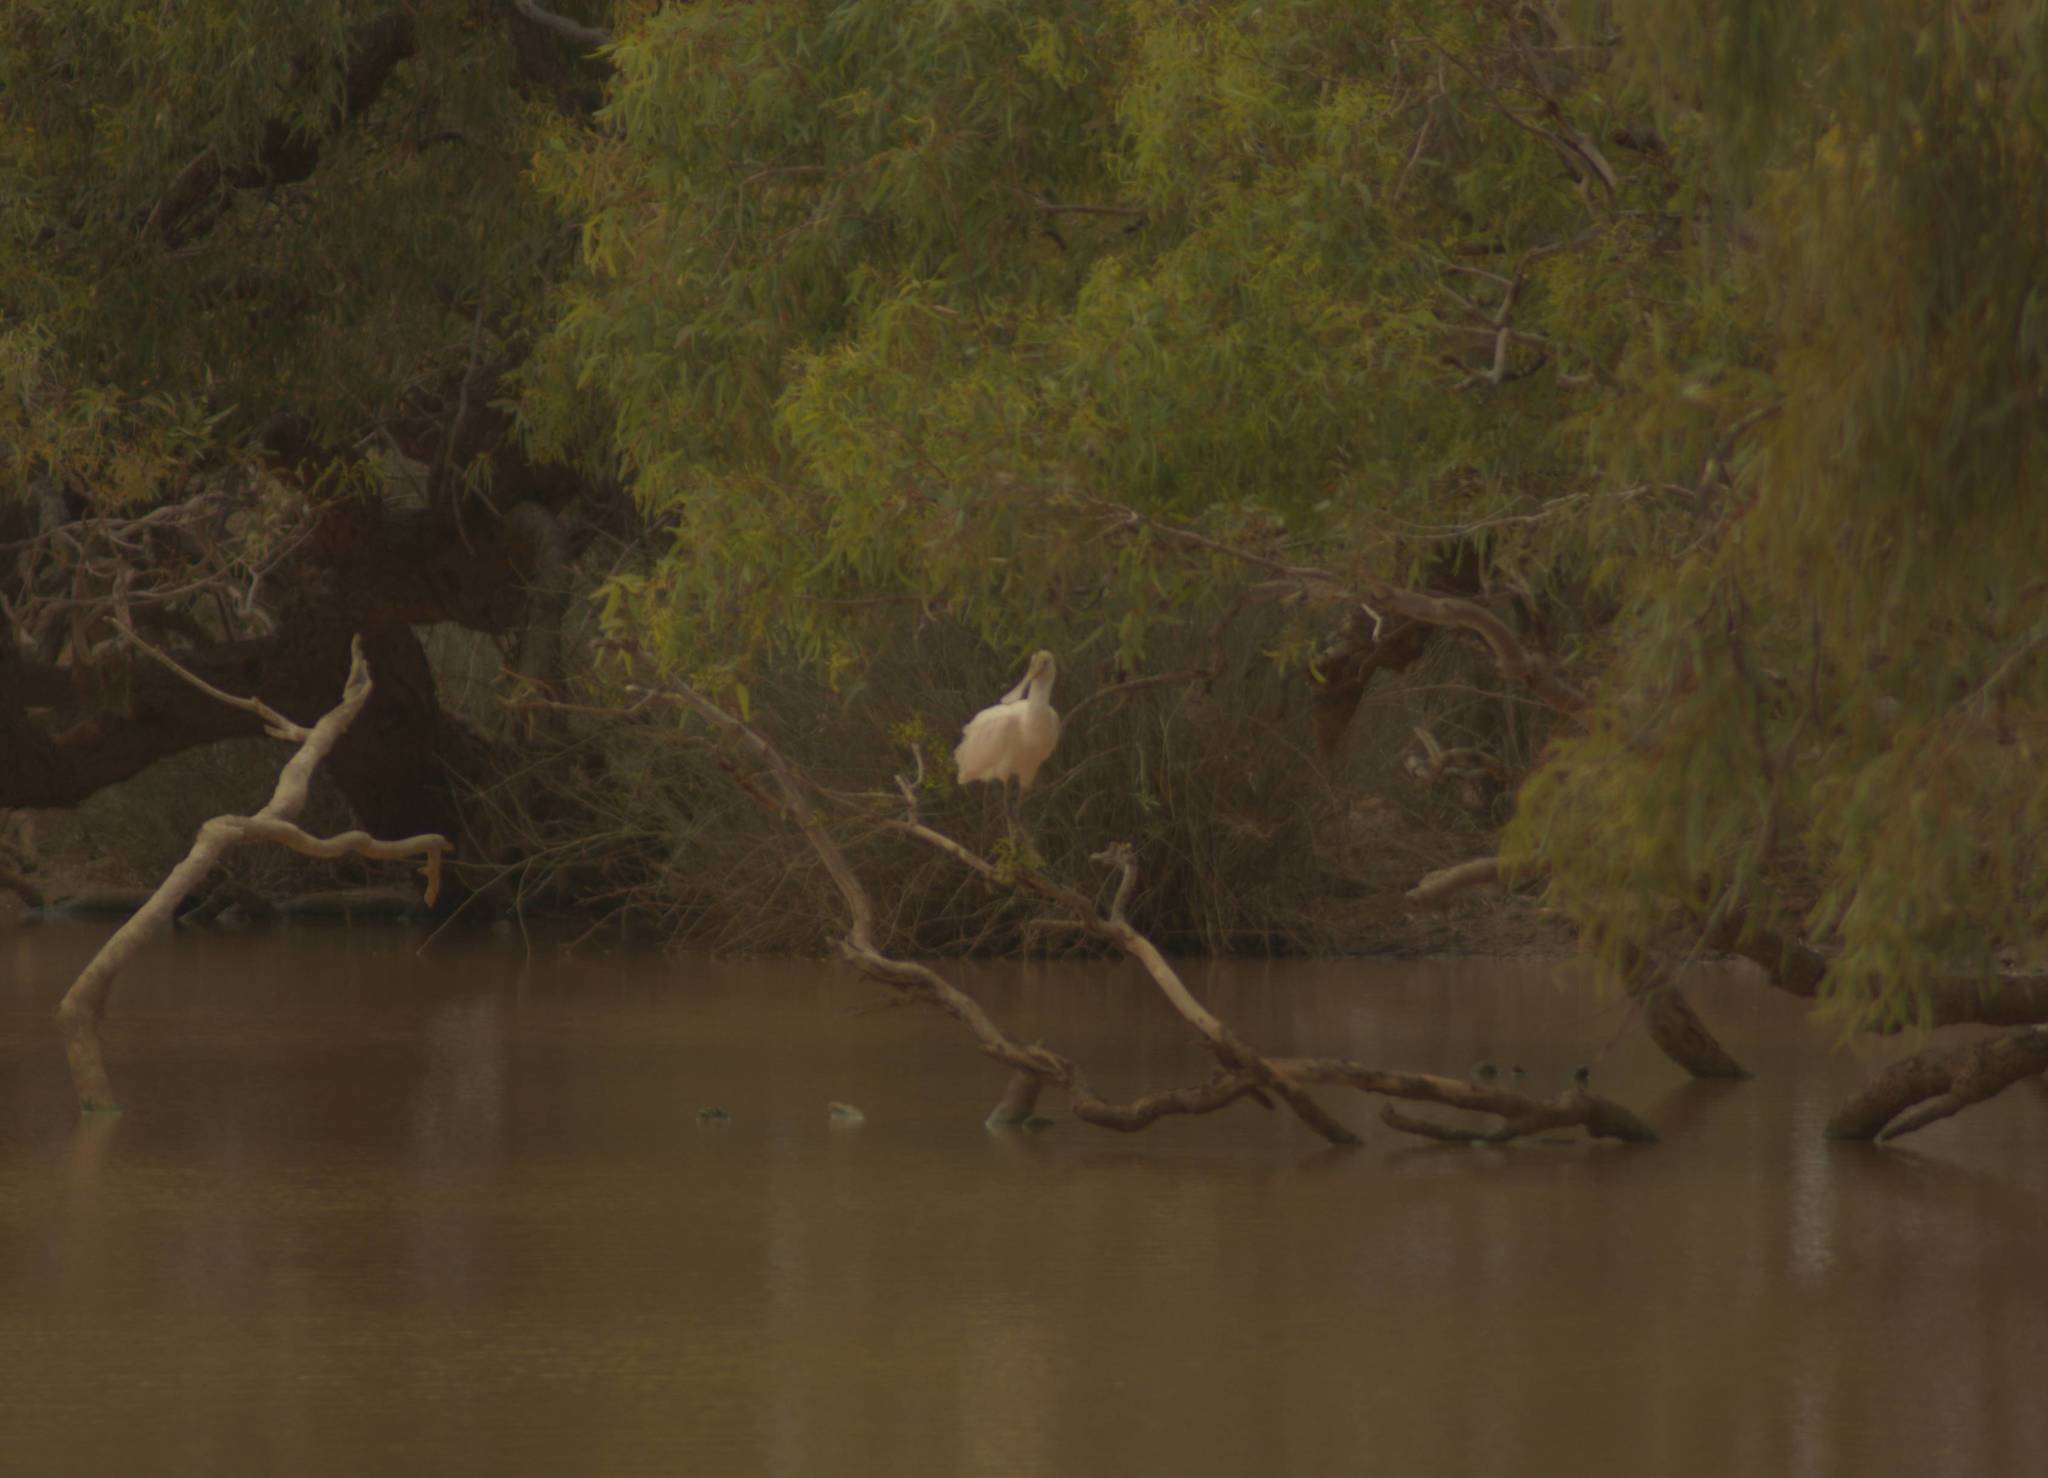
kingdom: Animalia
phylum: Chordata
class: Aves
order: Pelecaniformes
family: Threskiornithidae
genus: Platalea
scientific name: Platalea flavipes
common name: Yellow-billed spoonbill
